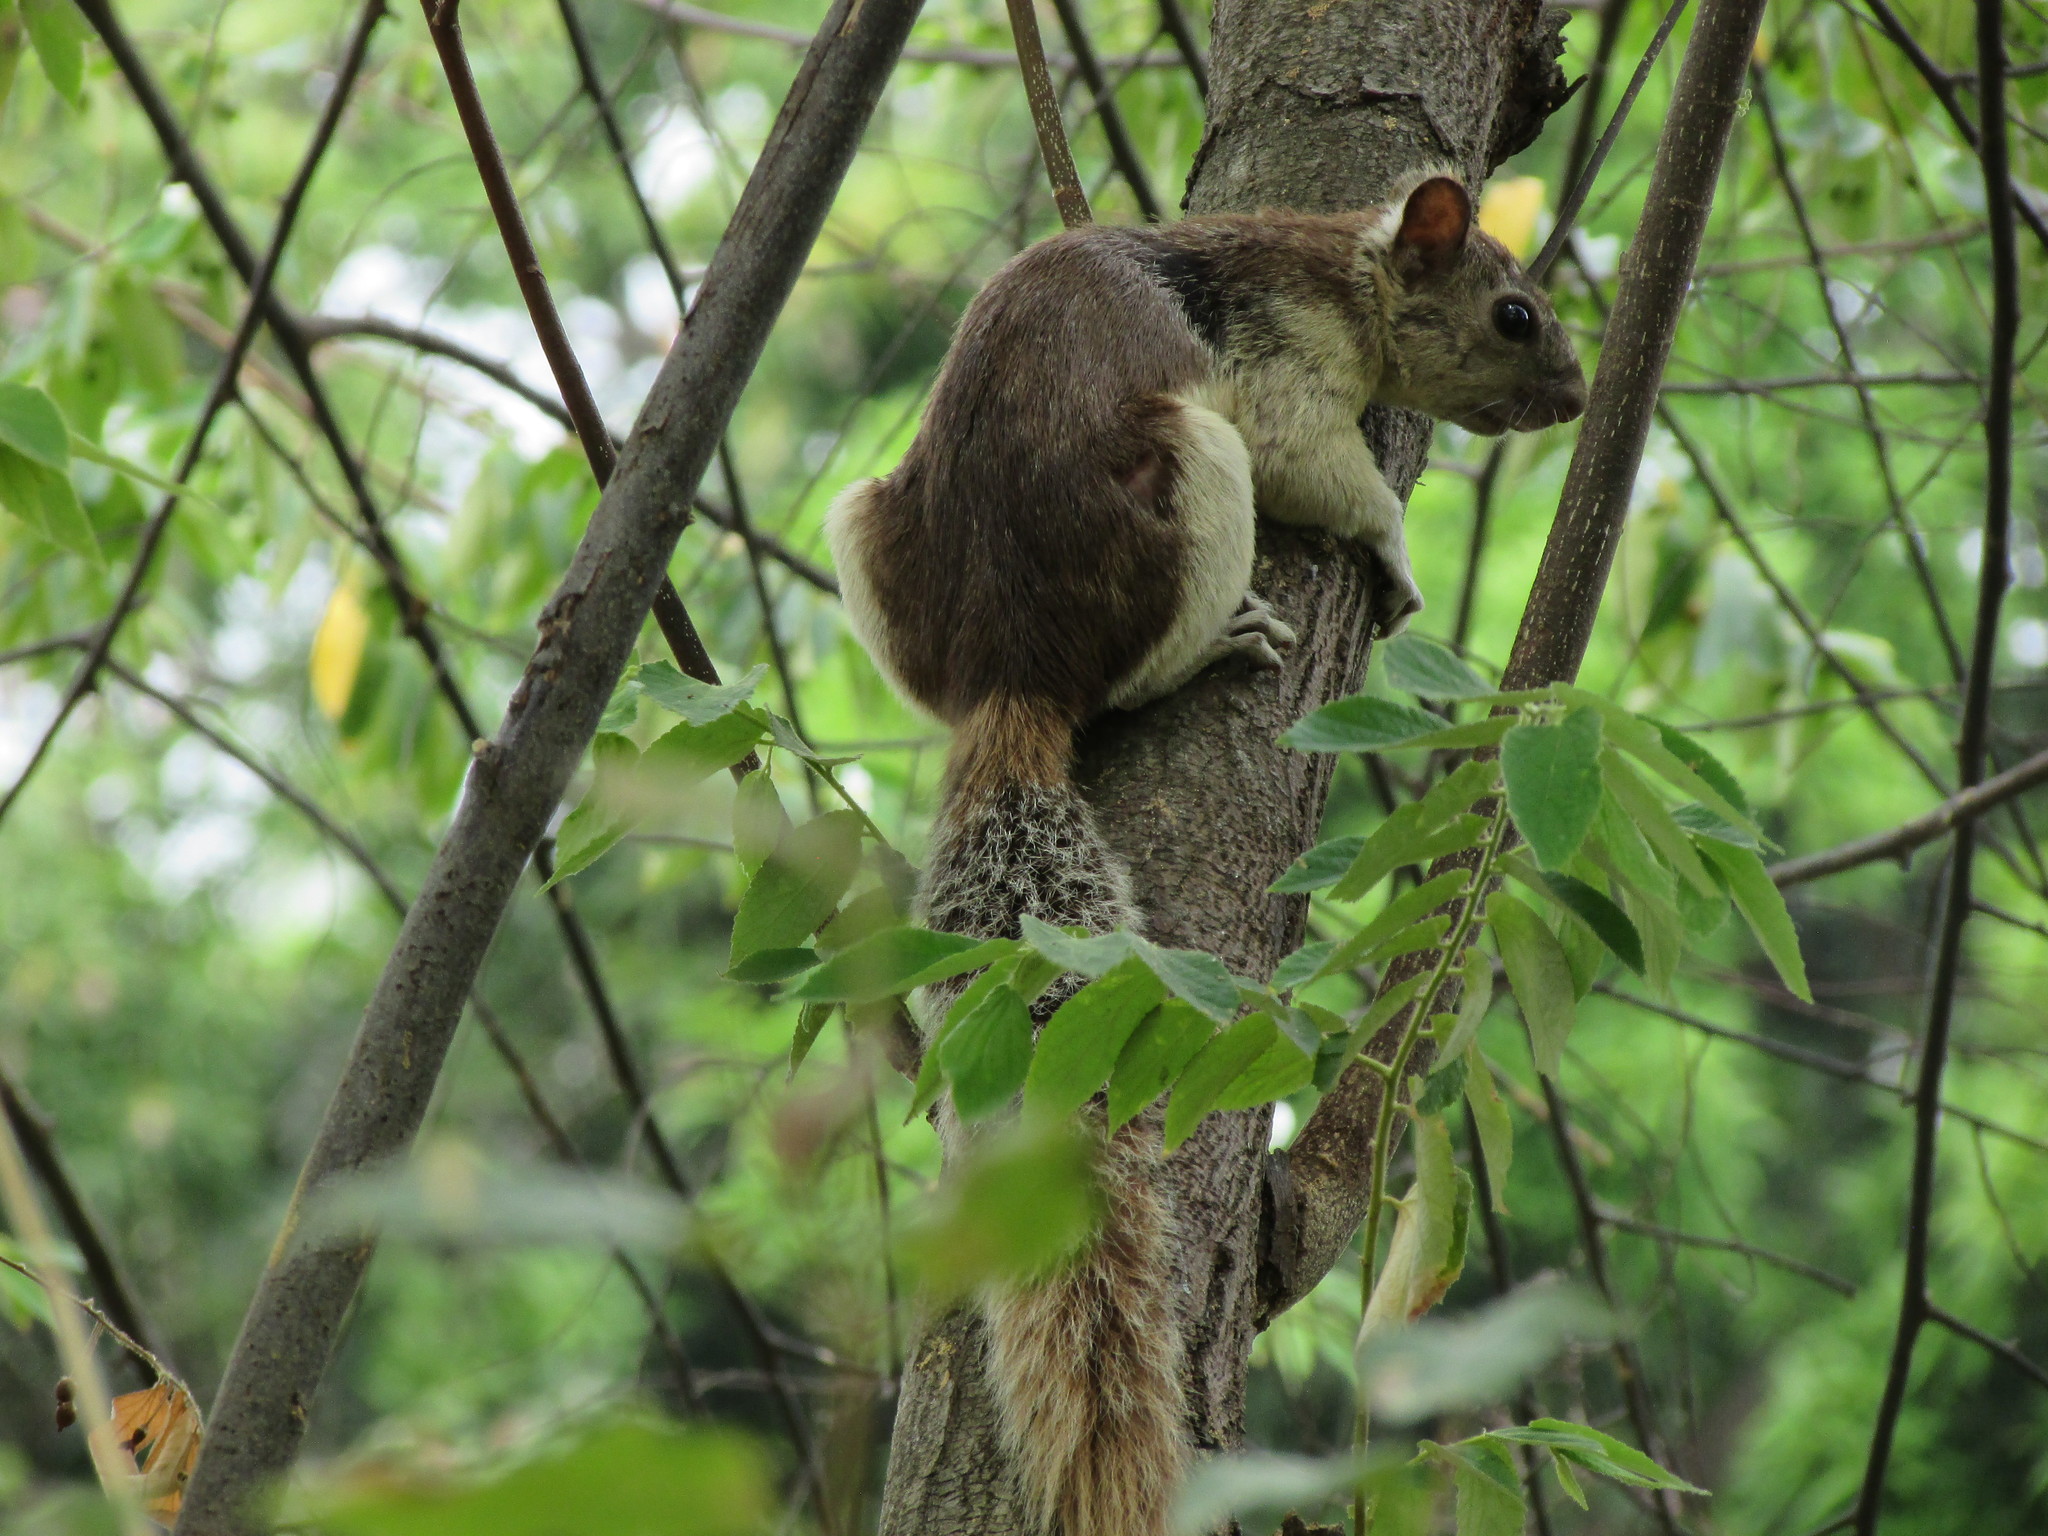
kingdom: Animalia
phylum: Chordata
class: Mammalia
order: Rodentia
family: Sciuridae
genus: Sciurus
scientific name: Sciurus variegatoides
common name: Variegated squirrel
